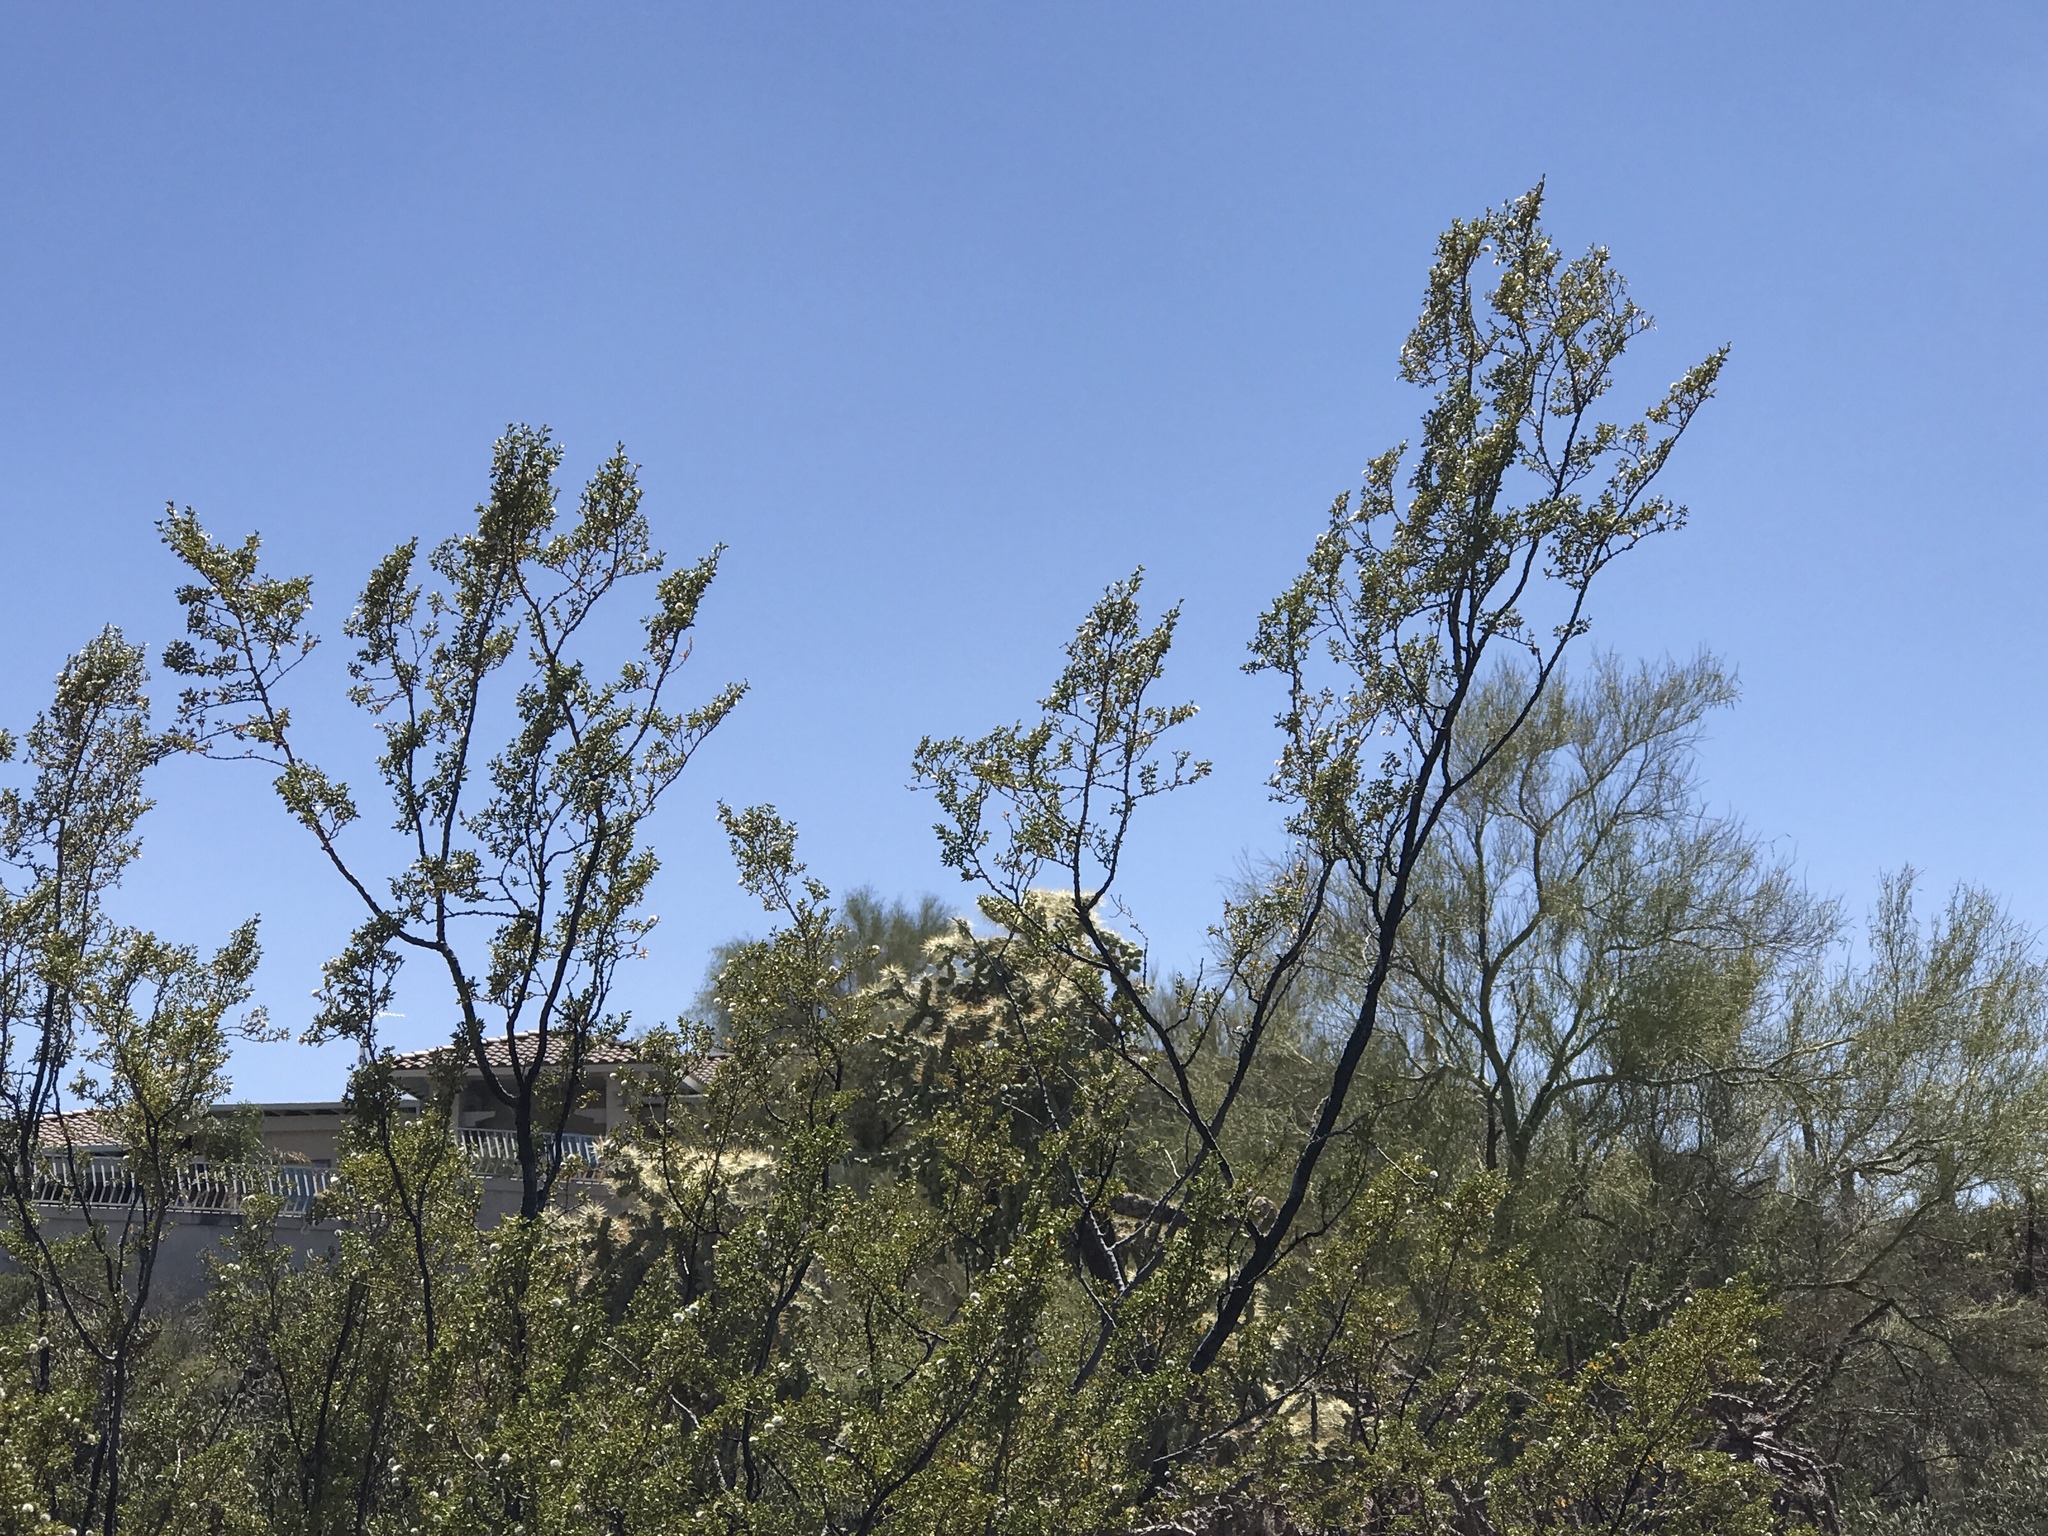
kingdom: Plantae
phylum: Tracheophyta
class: Magnoliopsida
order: Zygophyllales
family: Zygophyllaceae
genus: Larrea
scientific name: Larrea tridentata
